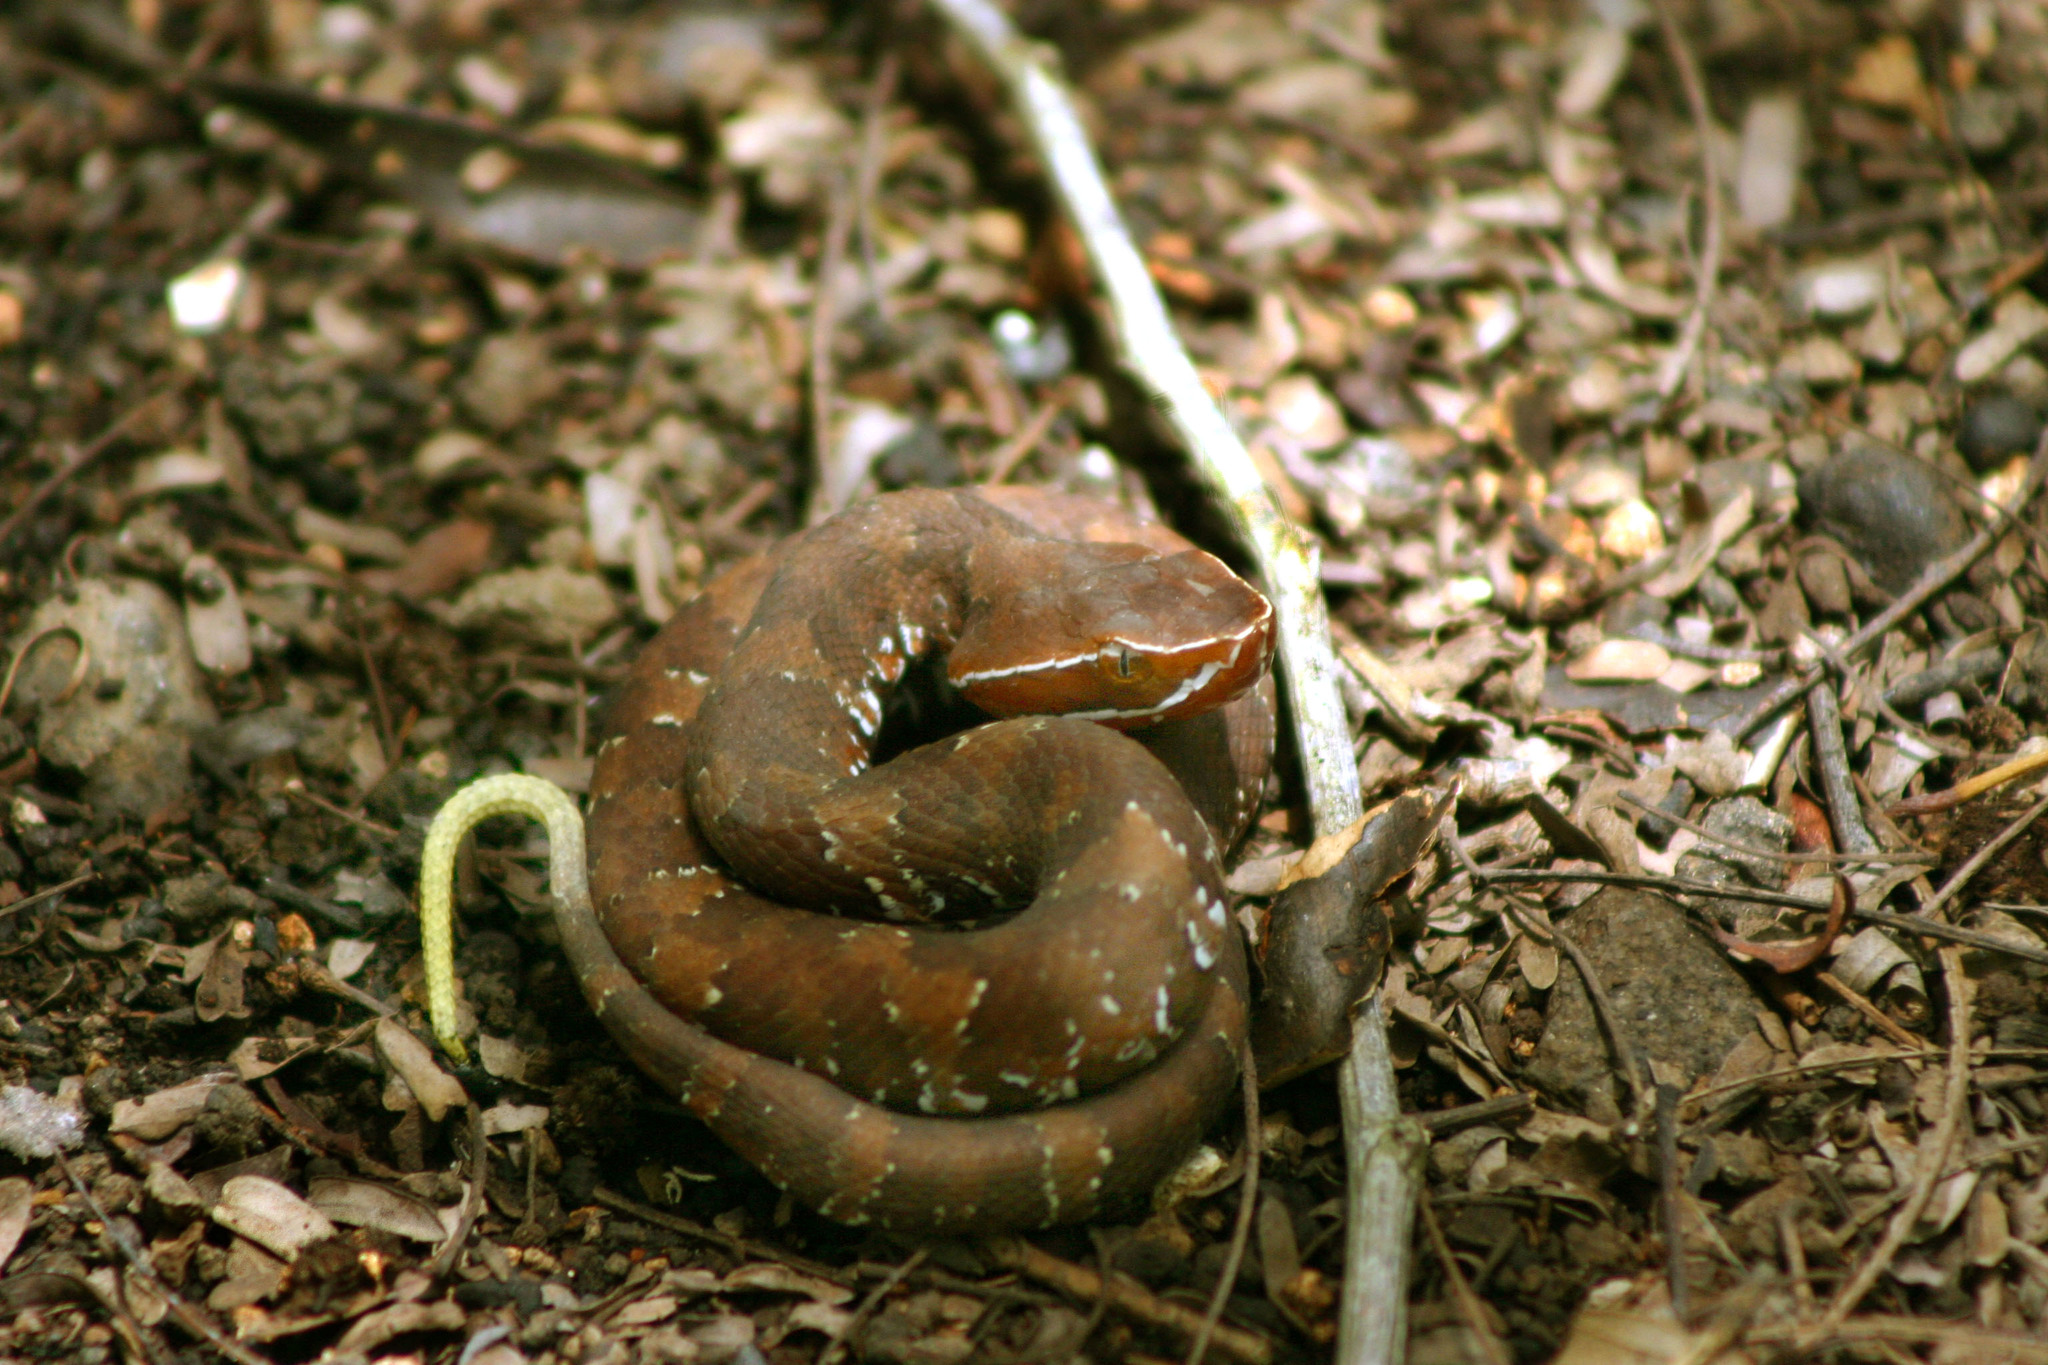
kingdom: Animalia
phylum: Chordata
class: Squamata
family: Viperidae
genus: Agkistrodon
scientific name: Agkistrodon russeolus
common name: Cantil
